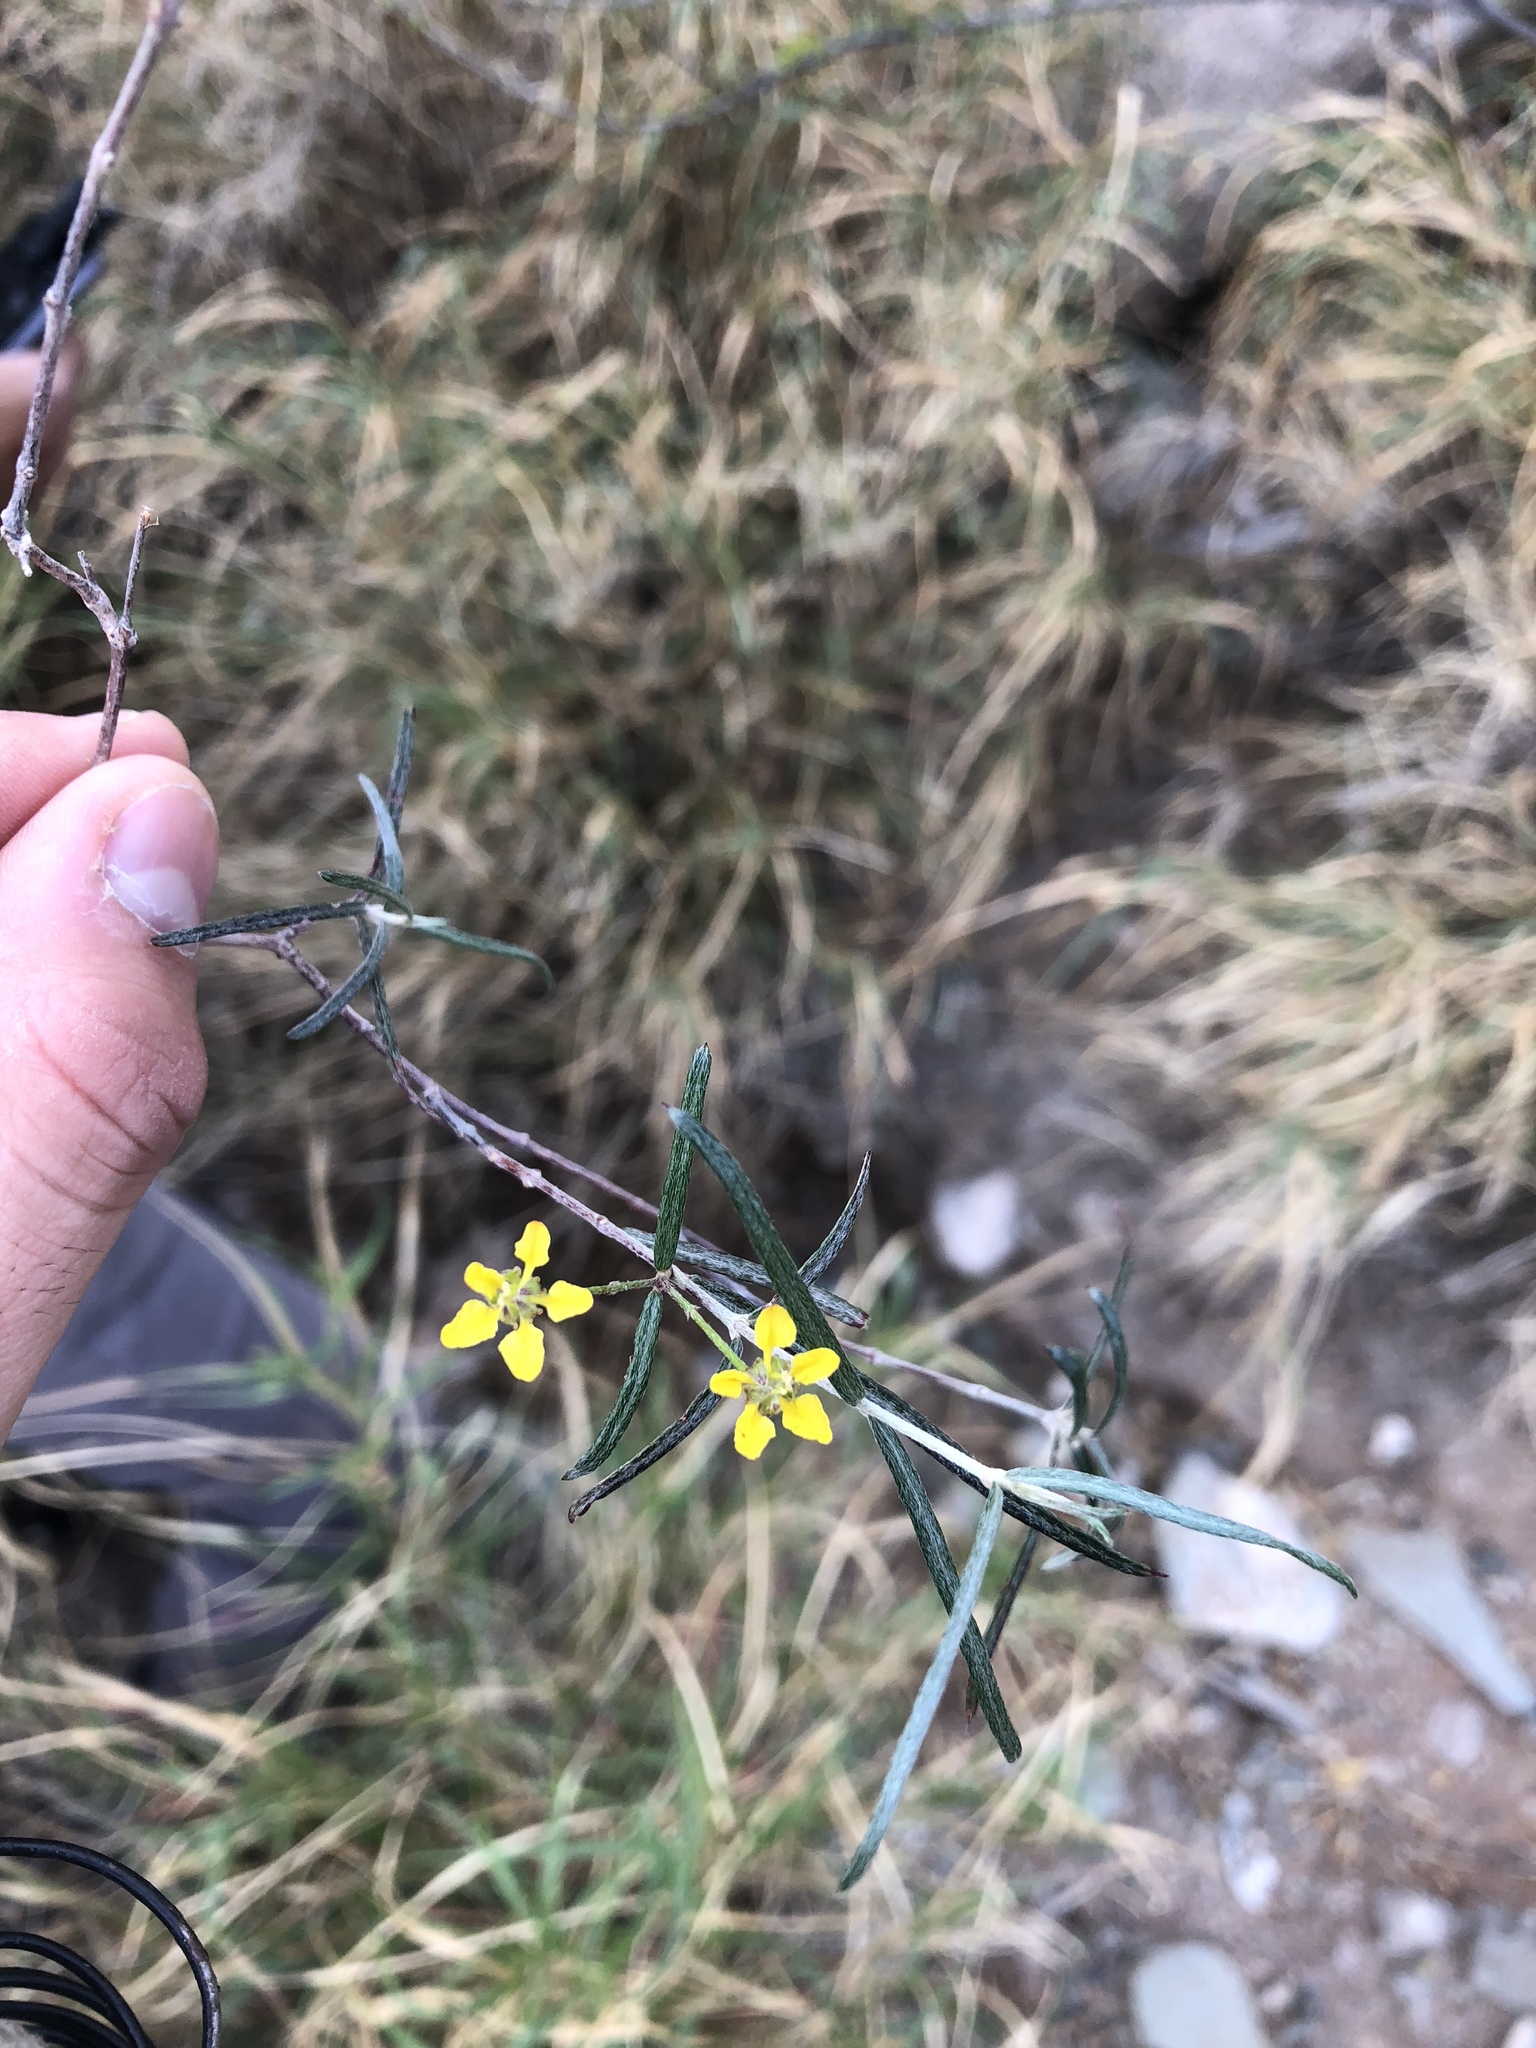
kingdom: Plantae
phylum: Tracheophyta
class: Magnoliopsida
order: Malpighiales
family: Malpighiaceae
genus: Cottsia
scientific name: Cottsia linearis
